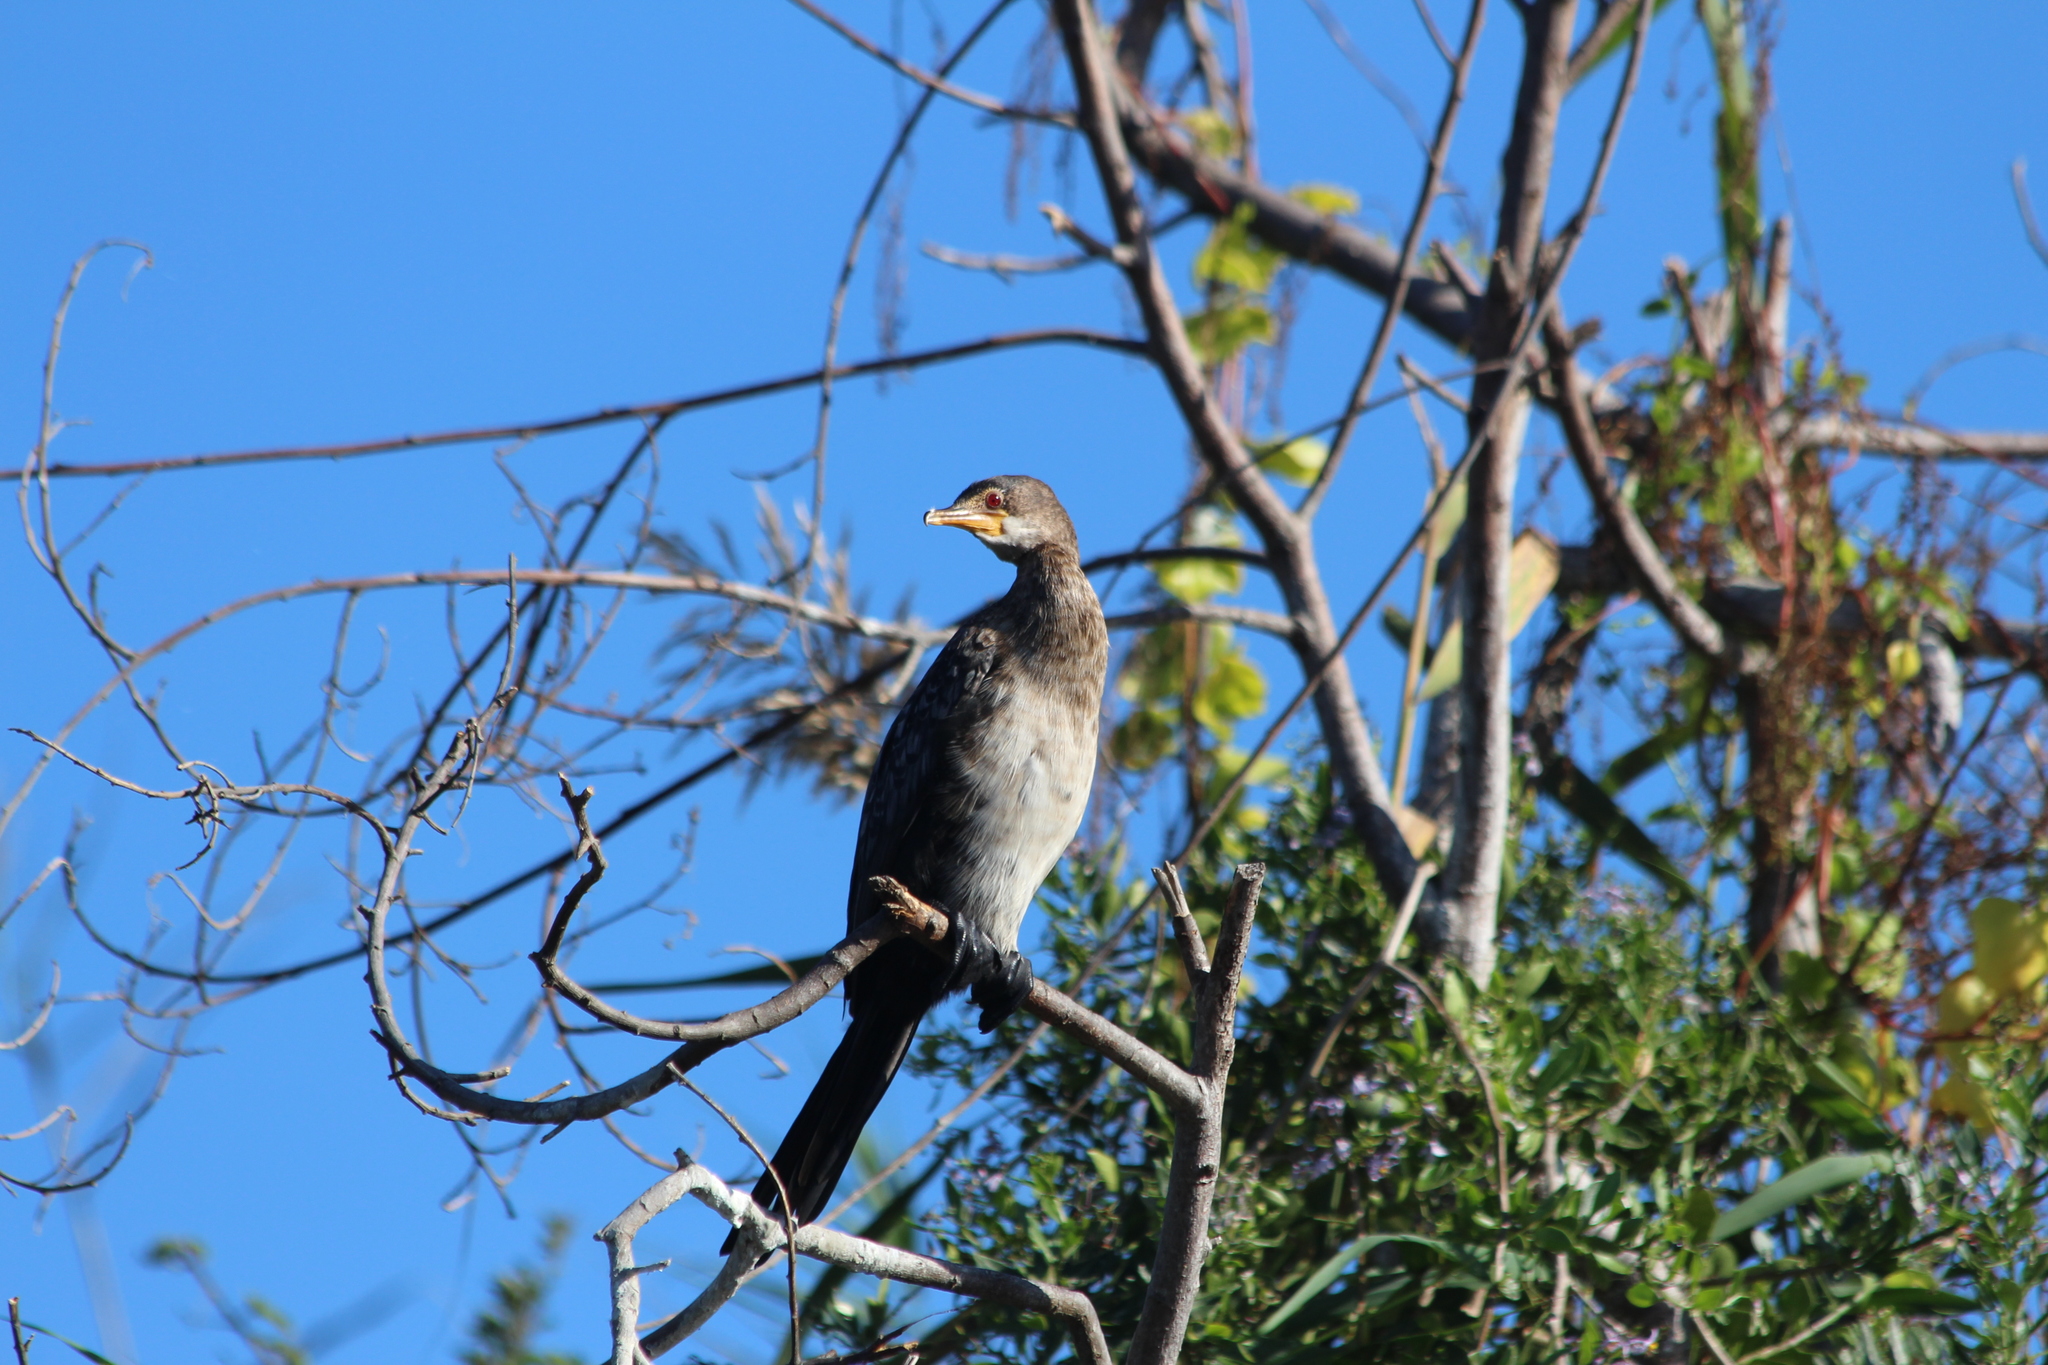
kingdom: Animalia
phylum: Chordata
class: Aves
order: Suliformes
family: Phalacrocoracidae
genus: Microcarbo
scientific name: Microcarbo africanus
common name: Long-tailed cormorant
